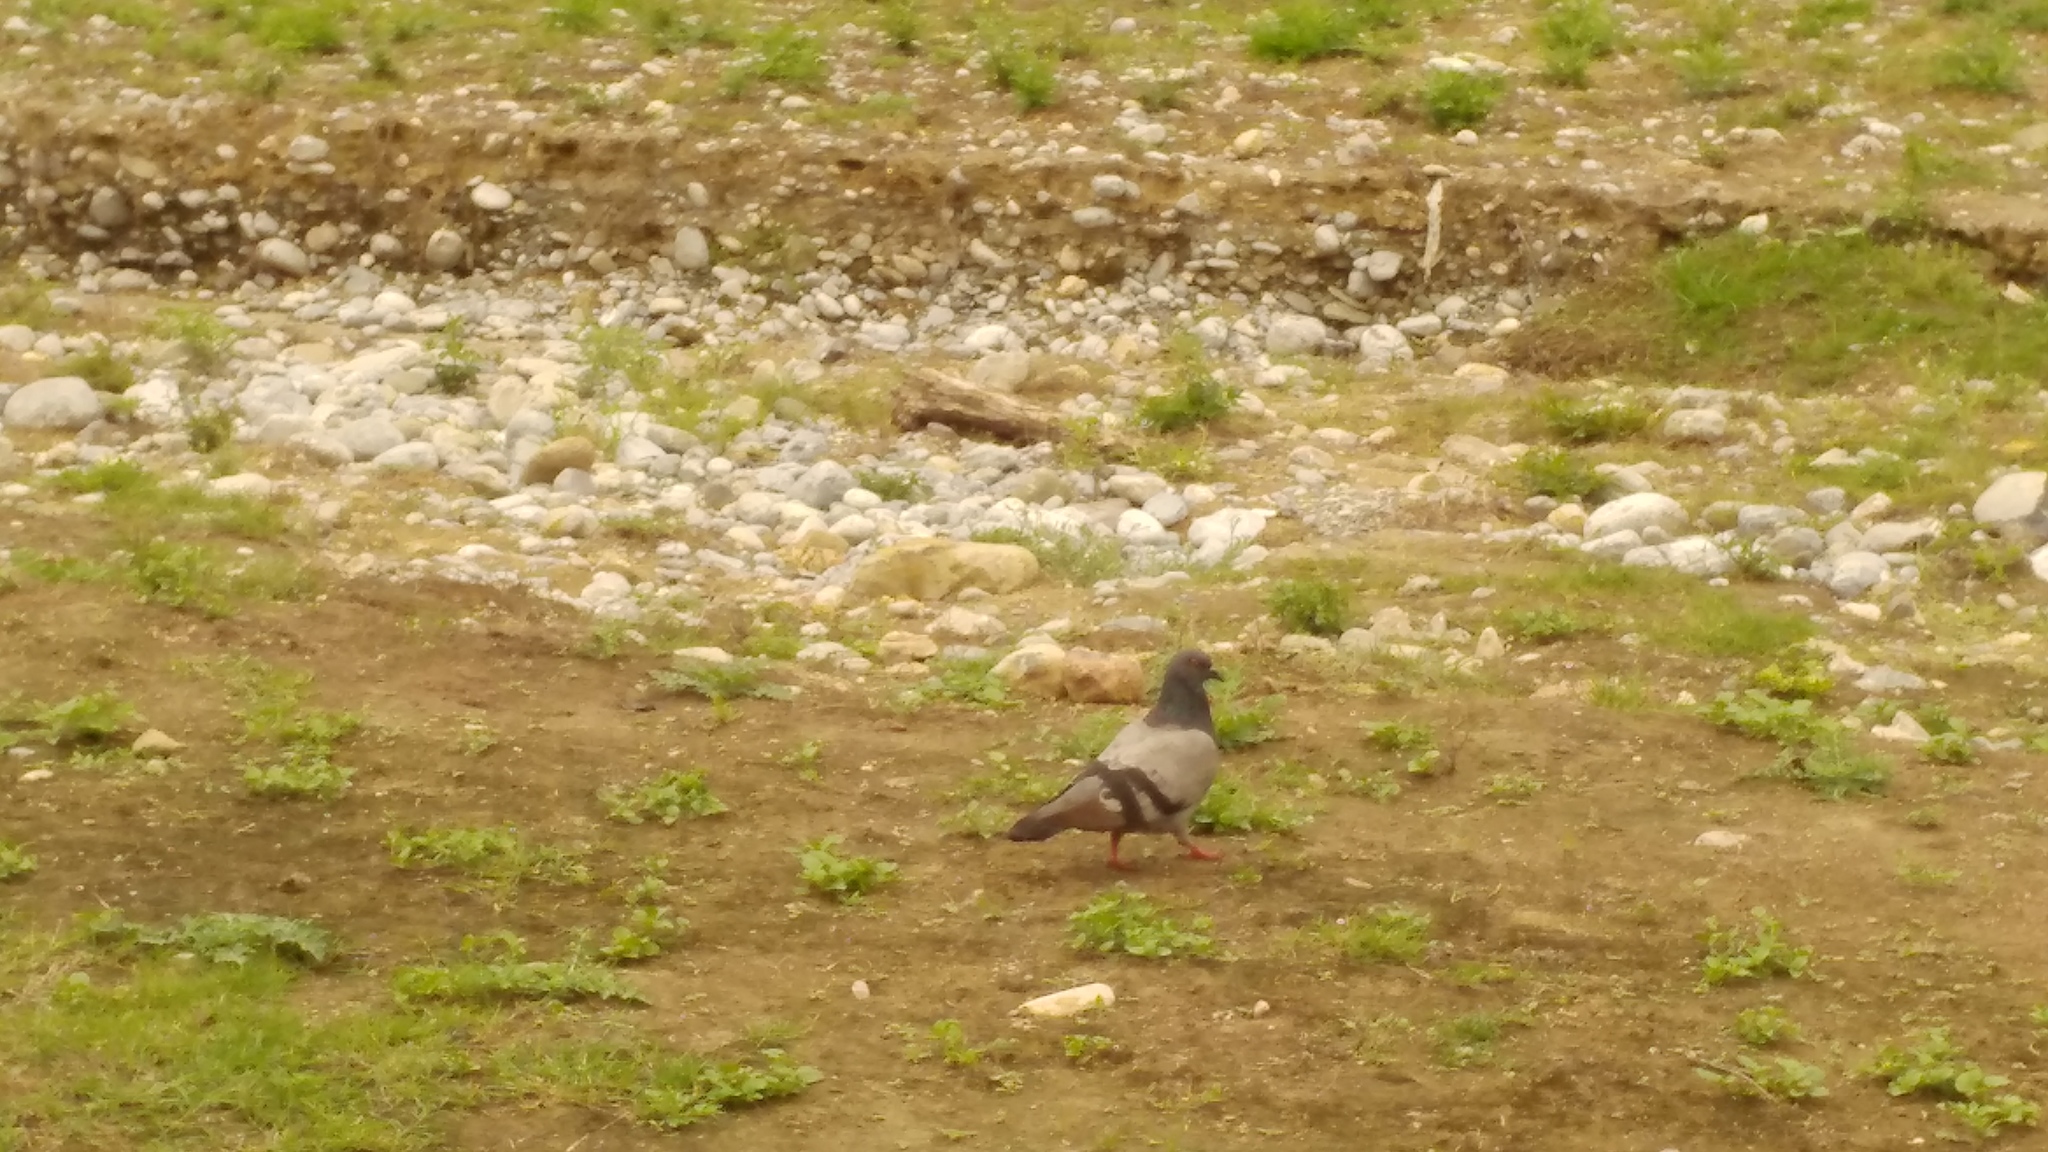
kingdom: Animalia
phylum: Chordata
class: Aves
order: Columbiformes
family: Columbidae
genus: Columba
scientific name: Columba livia
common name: Rock pigeon
